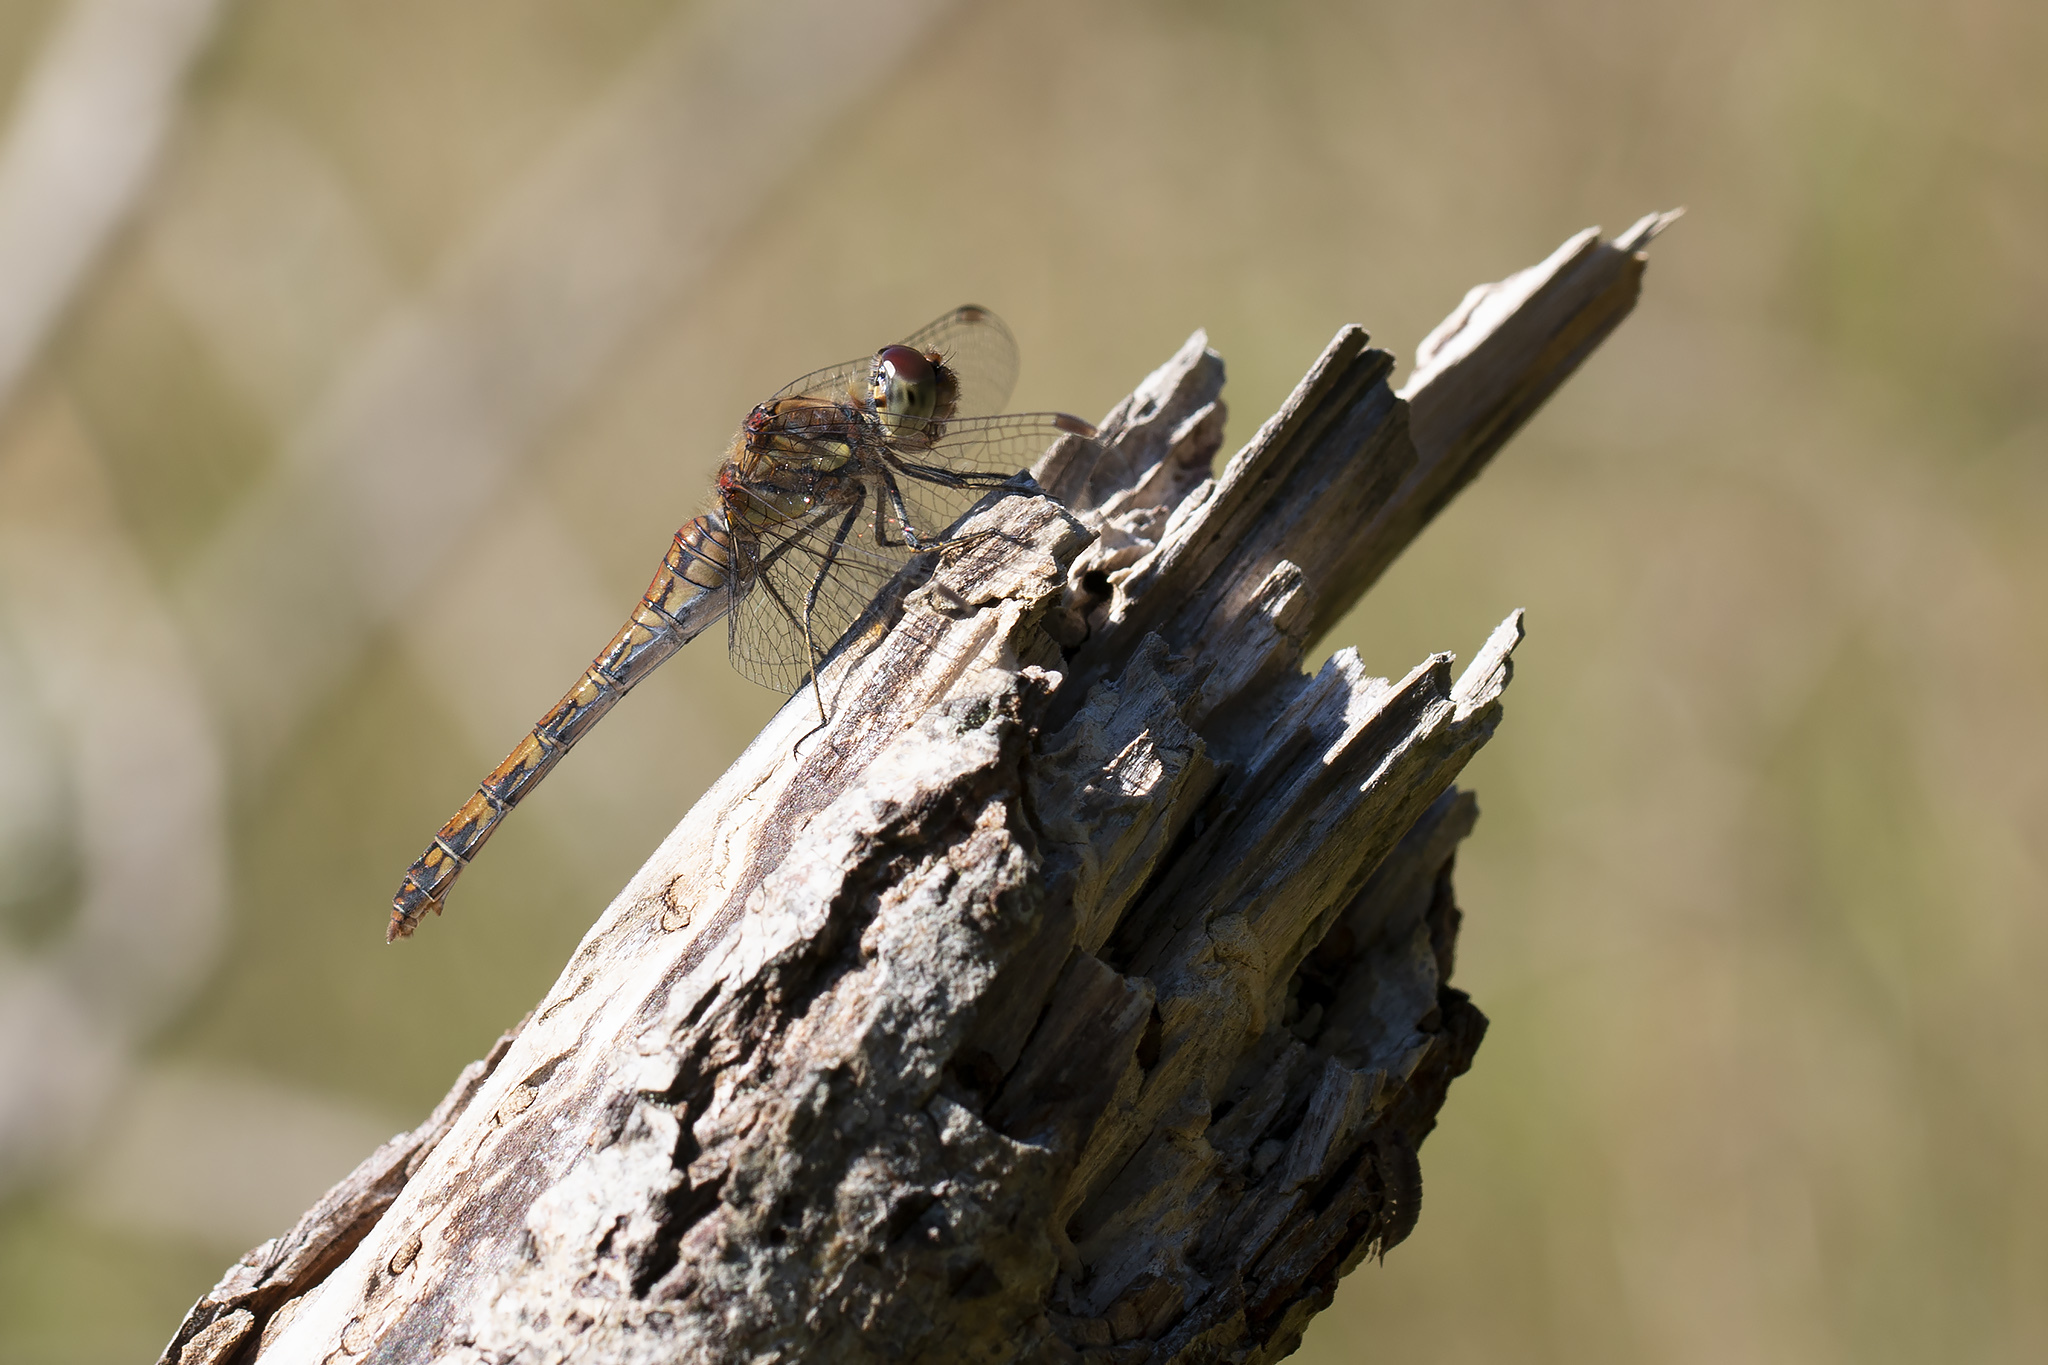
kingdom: Animalia
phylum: Arthropoda
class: Insecta
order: Odonata
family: Libellulidae
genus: Sympetrum
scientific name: Sympetrum striolatum
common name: Common darter
